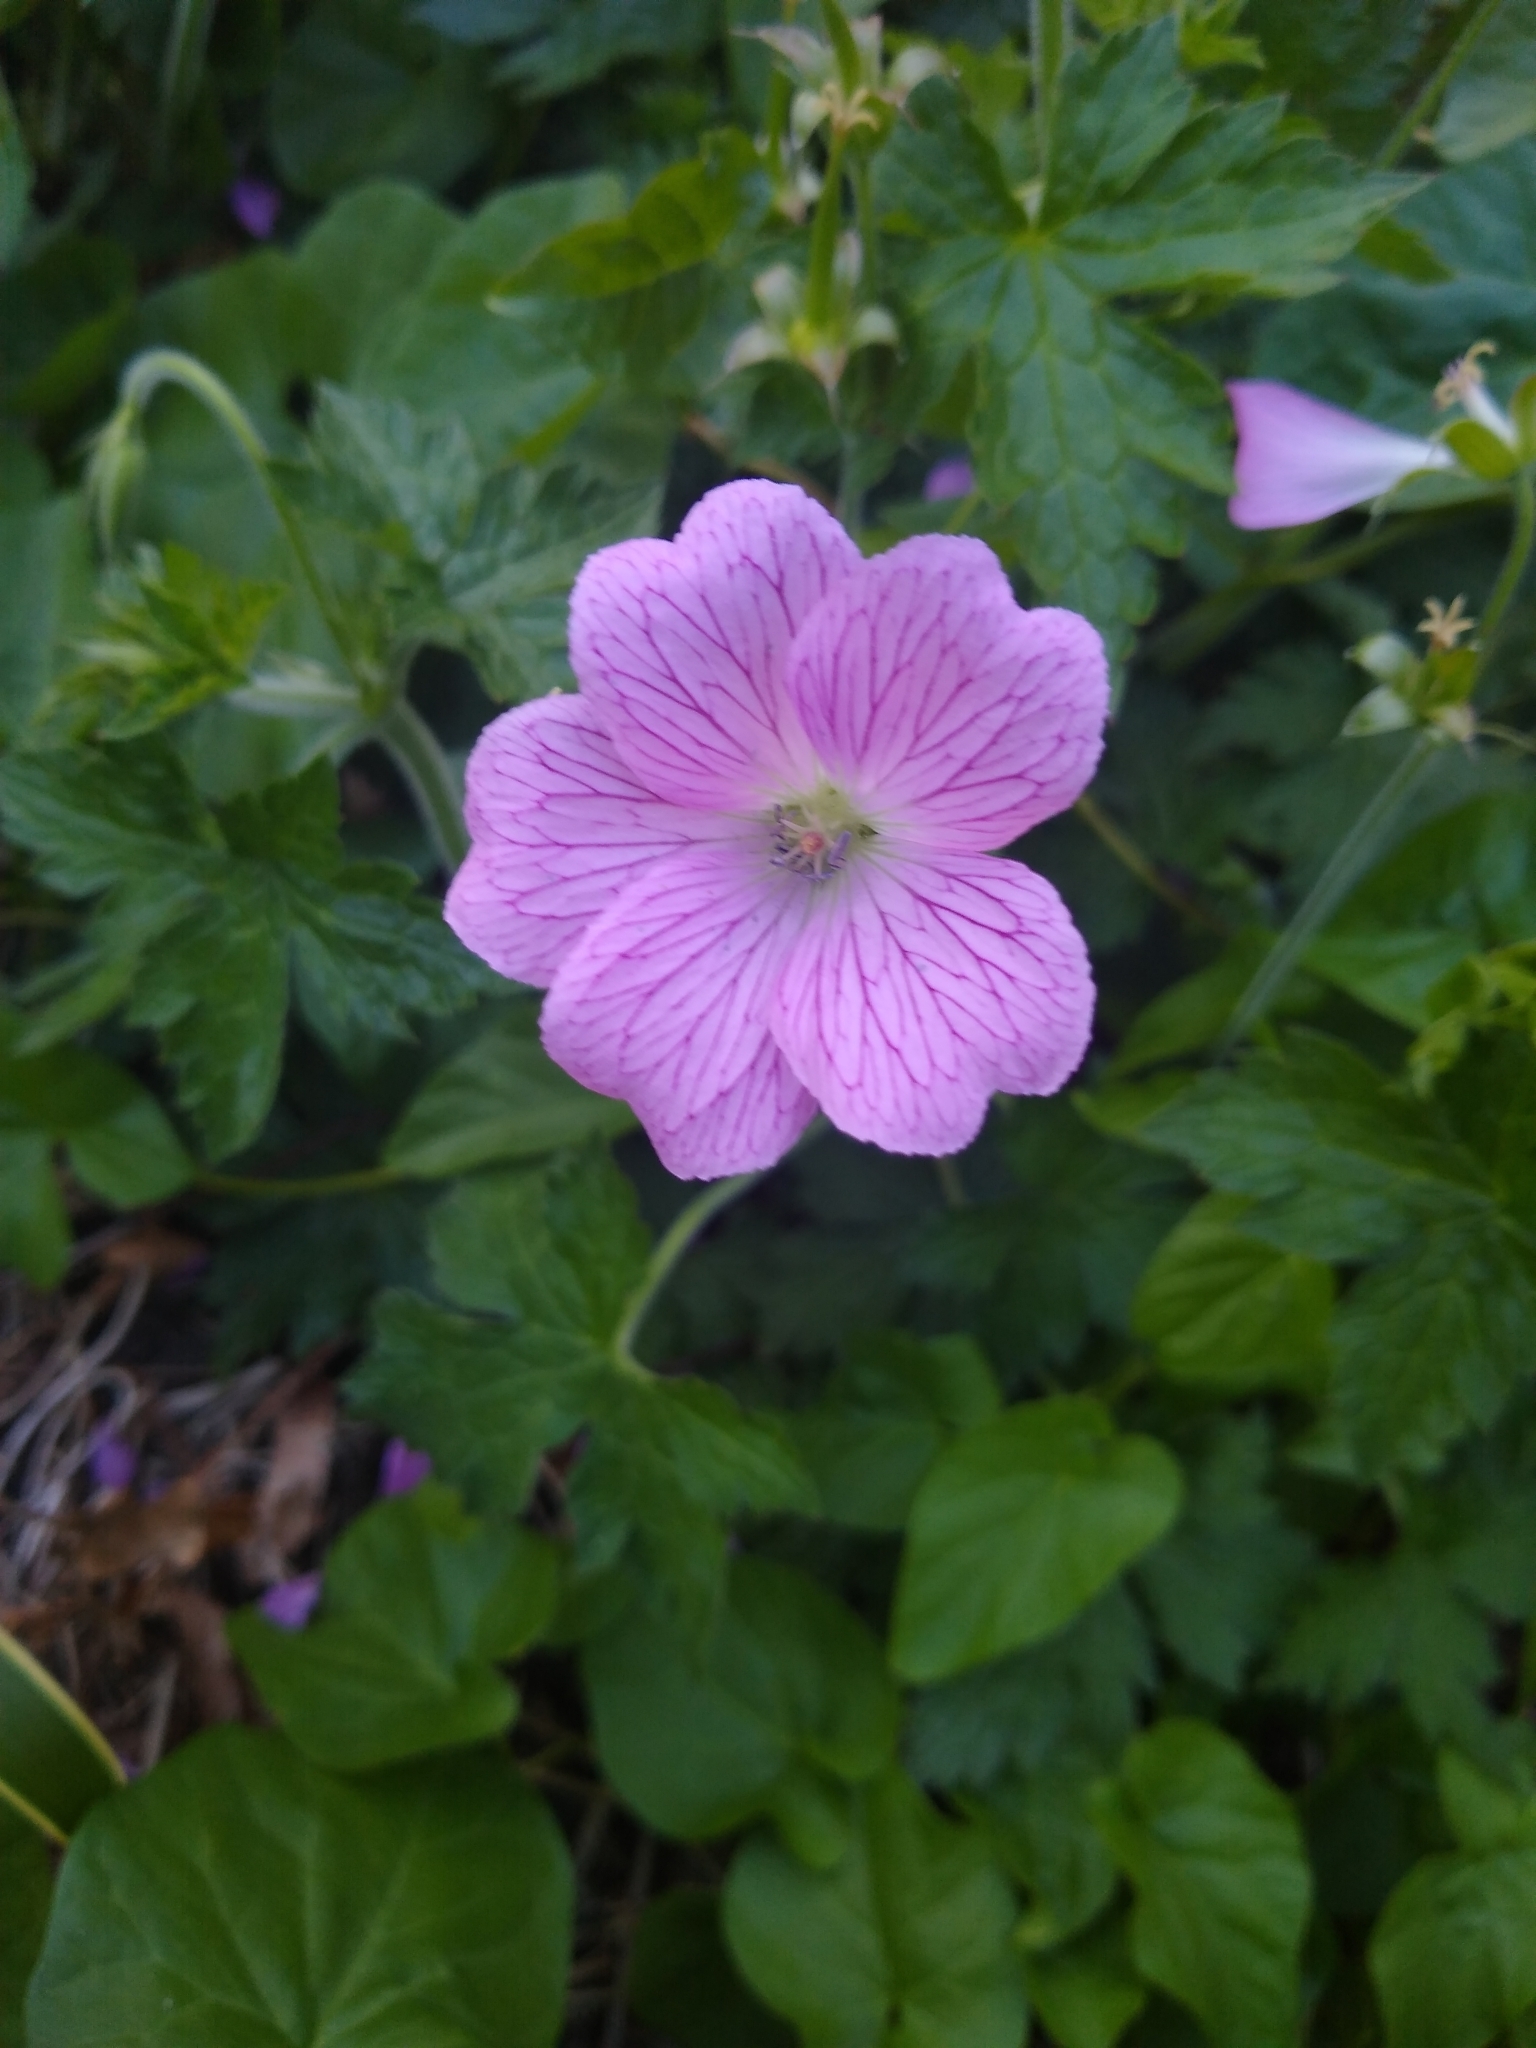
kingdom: Plantae
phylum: Tracheophyta
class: Magnoliopsida
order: Geraniales
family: Geraniaceae
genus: Geranium
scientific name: Geranium oxonianum
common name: Druce's crane's-bill
